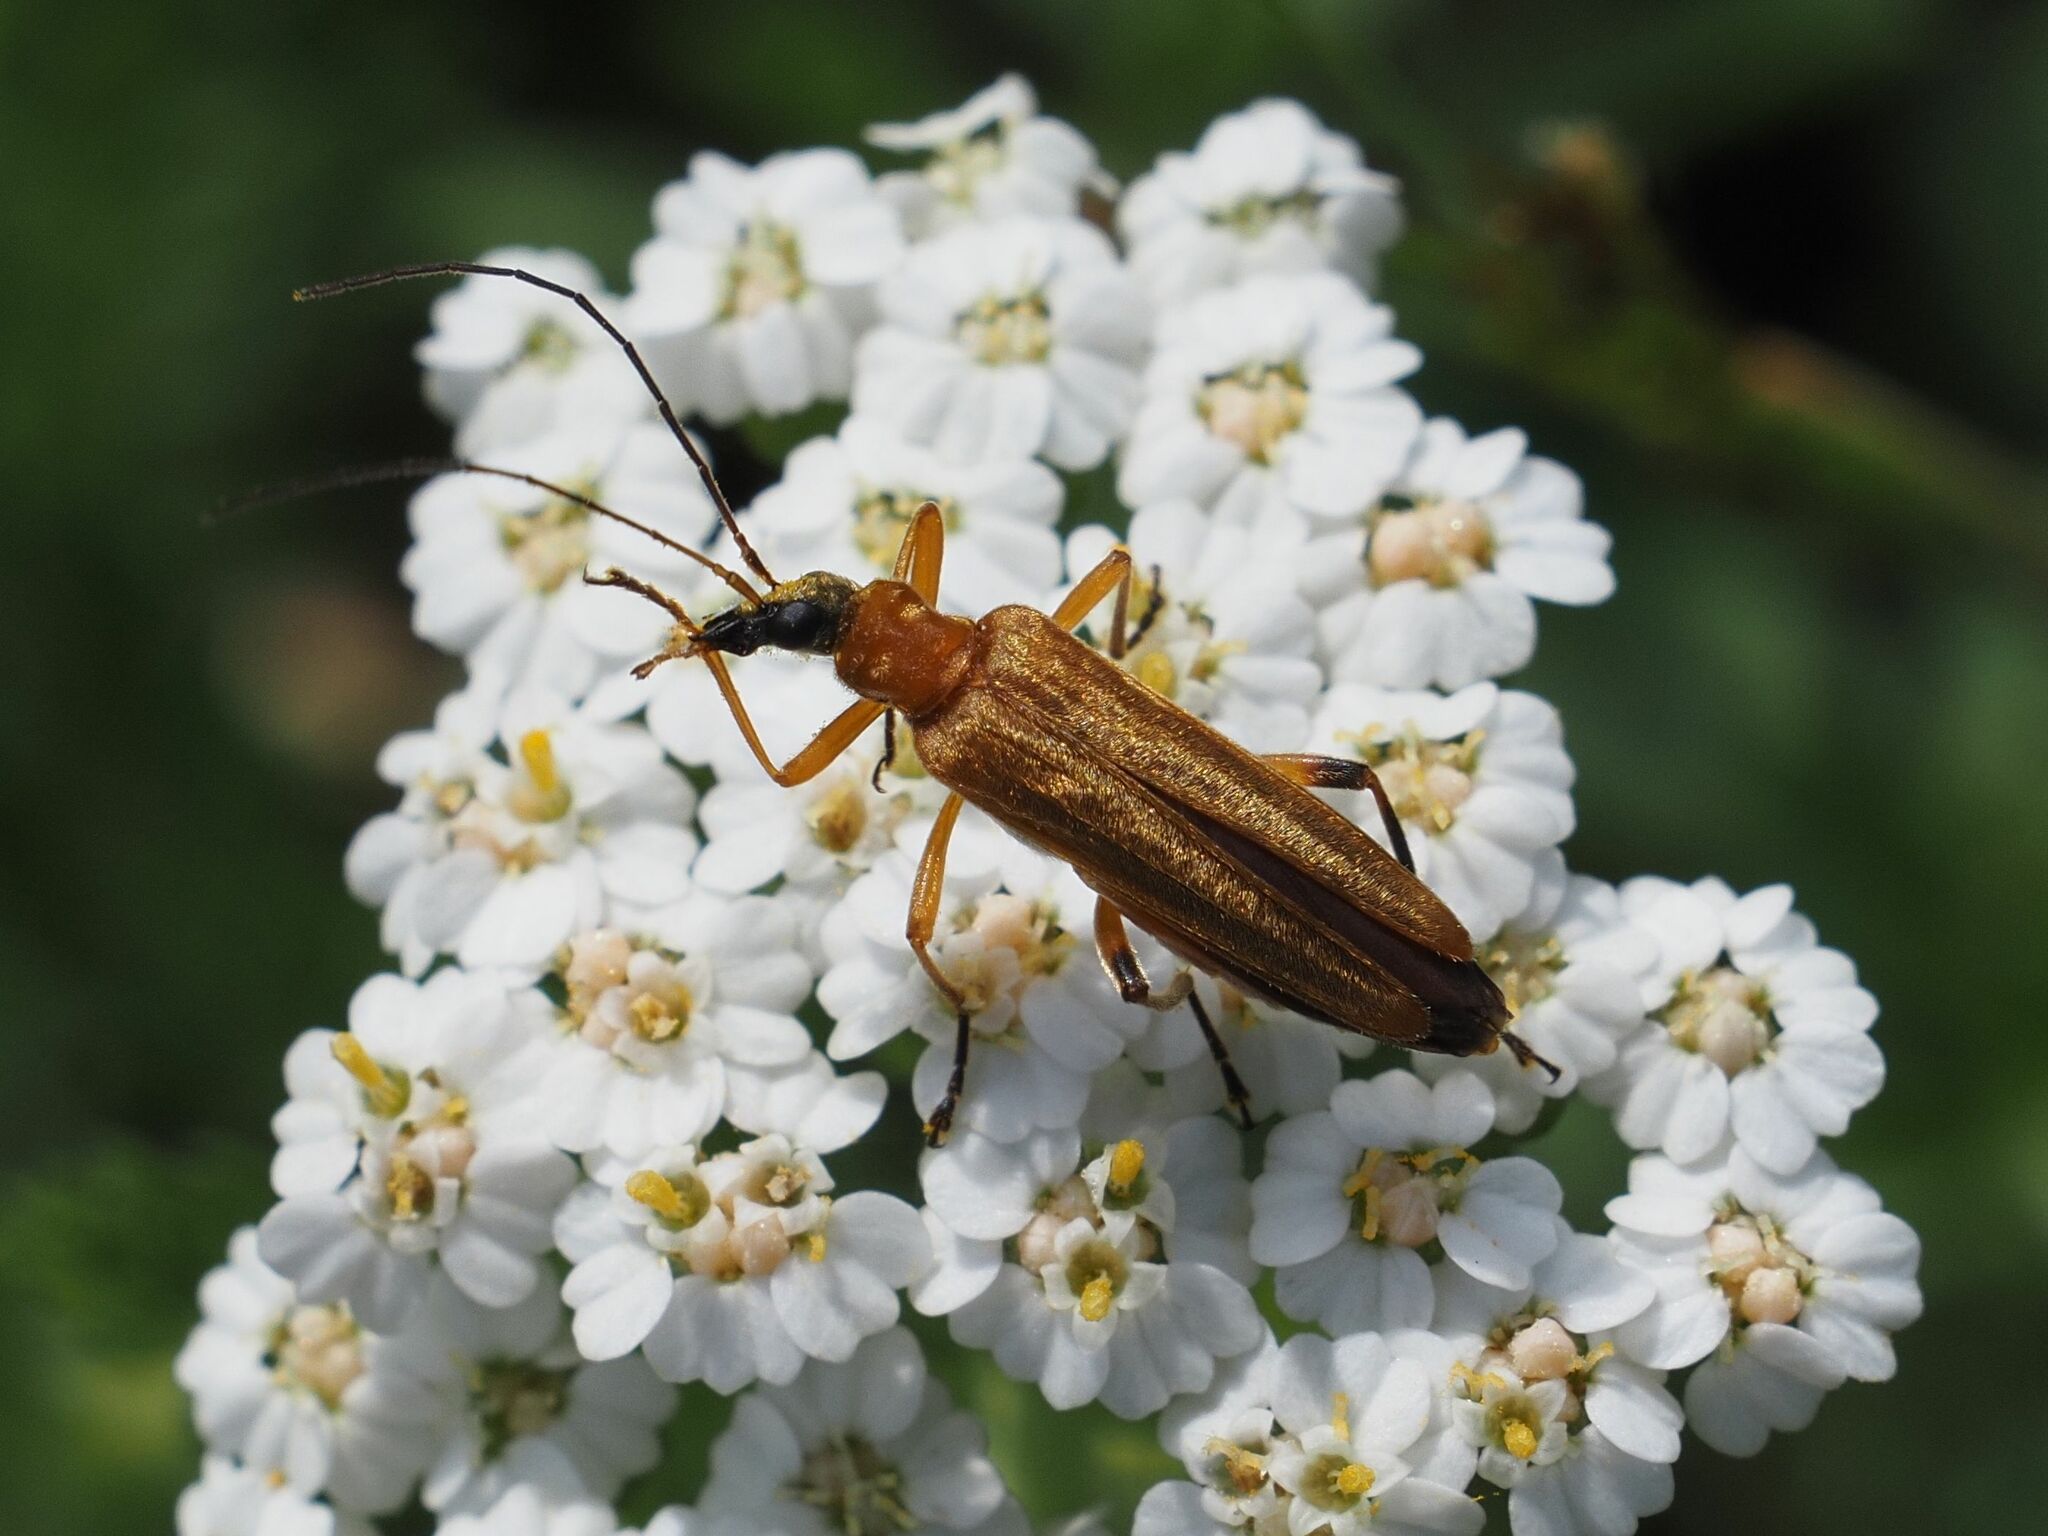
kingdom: Animalia
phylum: Arthropoda
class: Insecta
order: Coleoptera
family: Oedemeridae
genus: Oedemera
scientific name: Oedemera podagrariae
